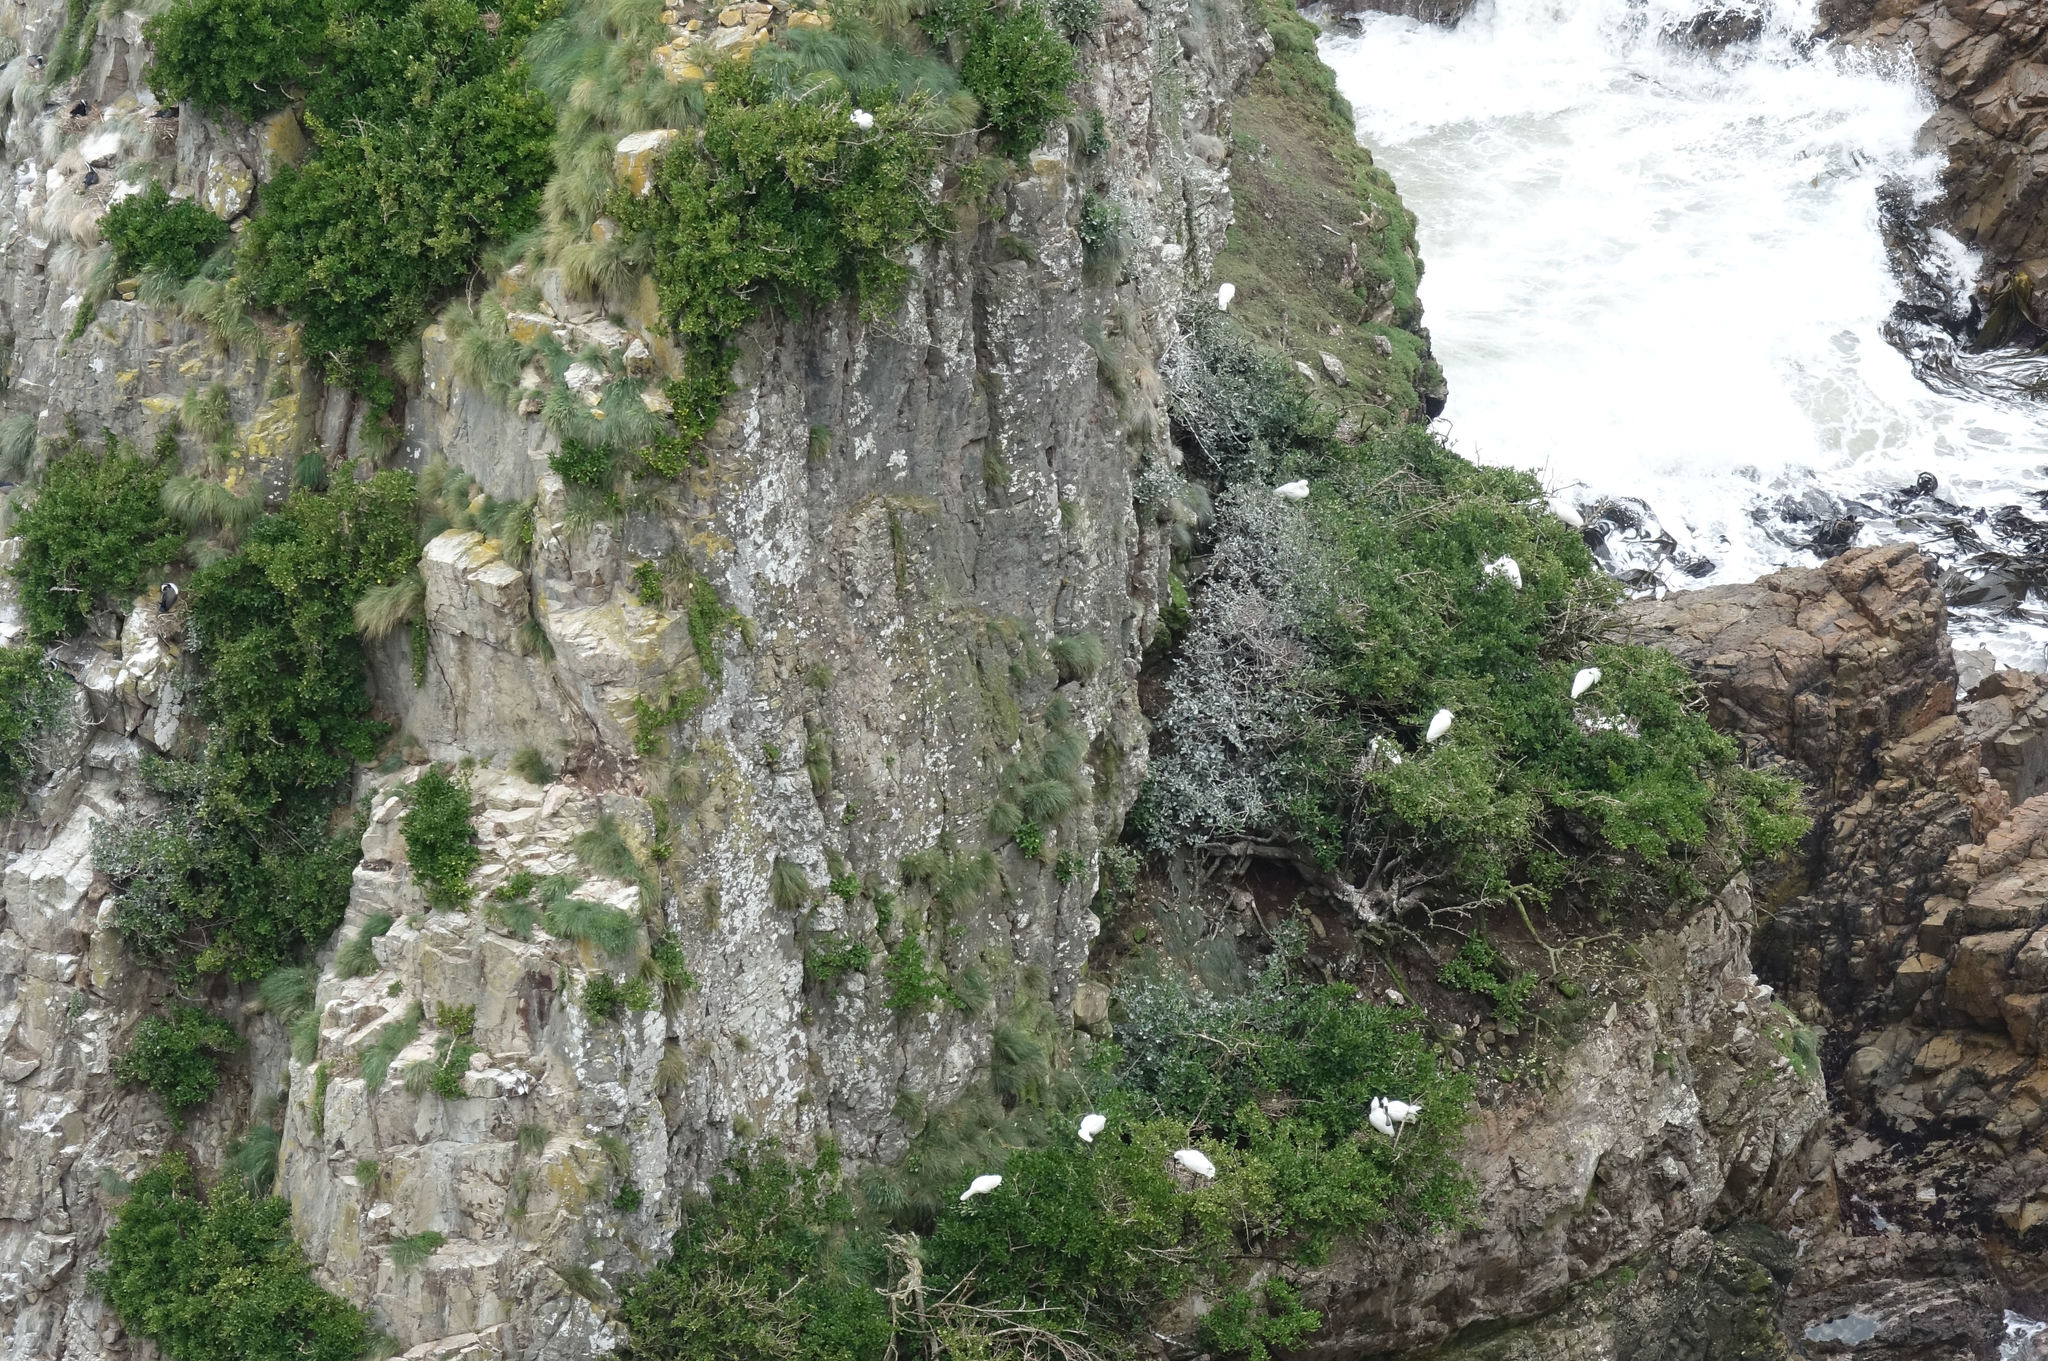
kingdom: Animalia
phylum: Chordata
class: Aves
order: Pelecaniformes
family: Threskiornithidae
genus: Platalea
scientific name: Platalea regia
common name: Royal spoonbill
